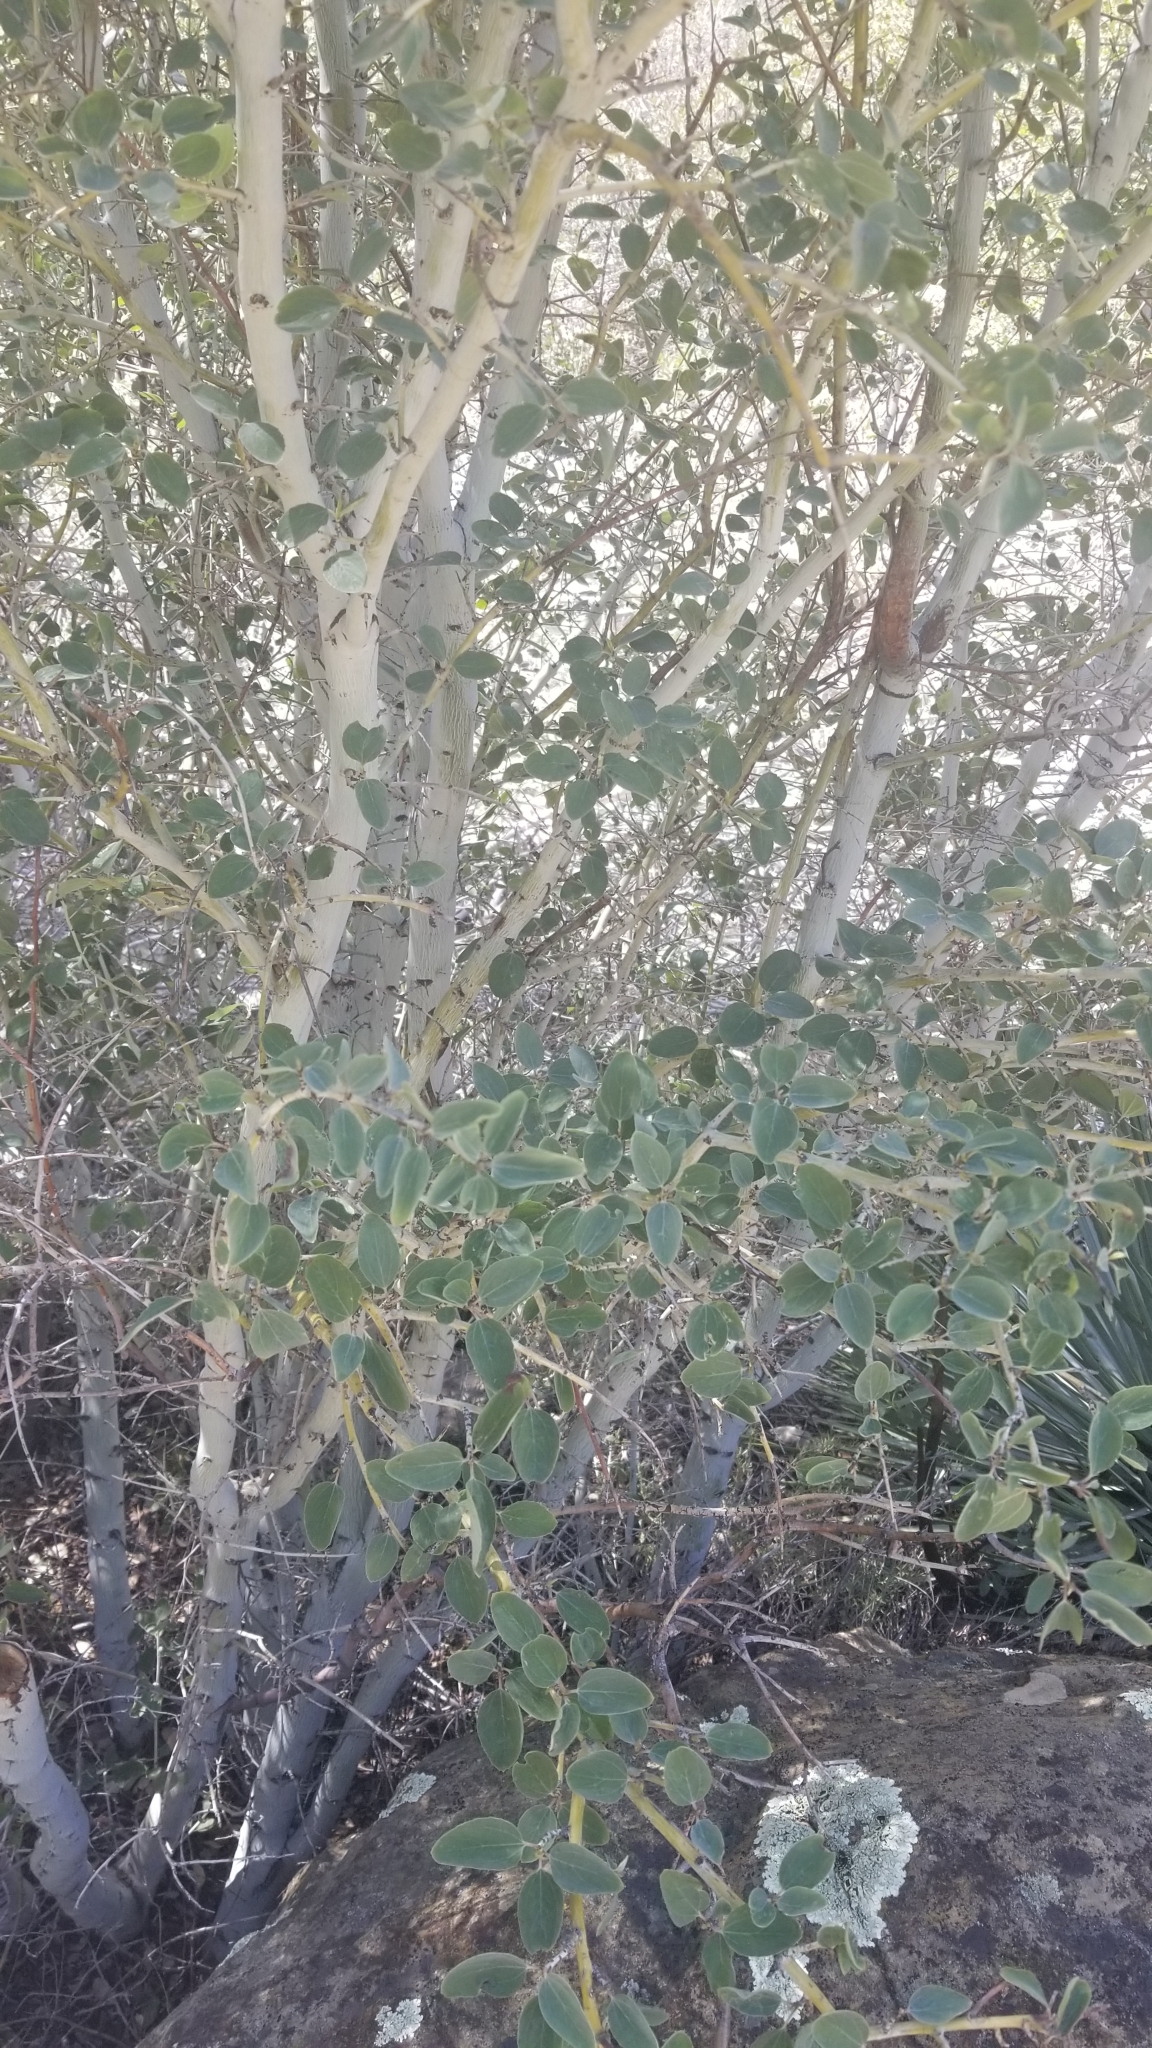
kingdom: Plantae
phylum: Tracheophyta
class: Magnoliopsida
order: Rosales
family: Rhamnaceae
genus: Ceanothus
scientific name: Ceanothus leucodermis
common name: Chaparral whitethorn
